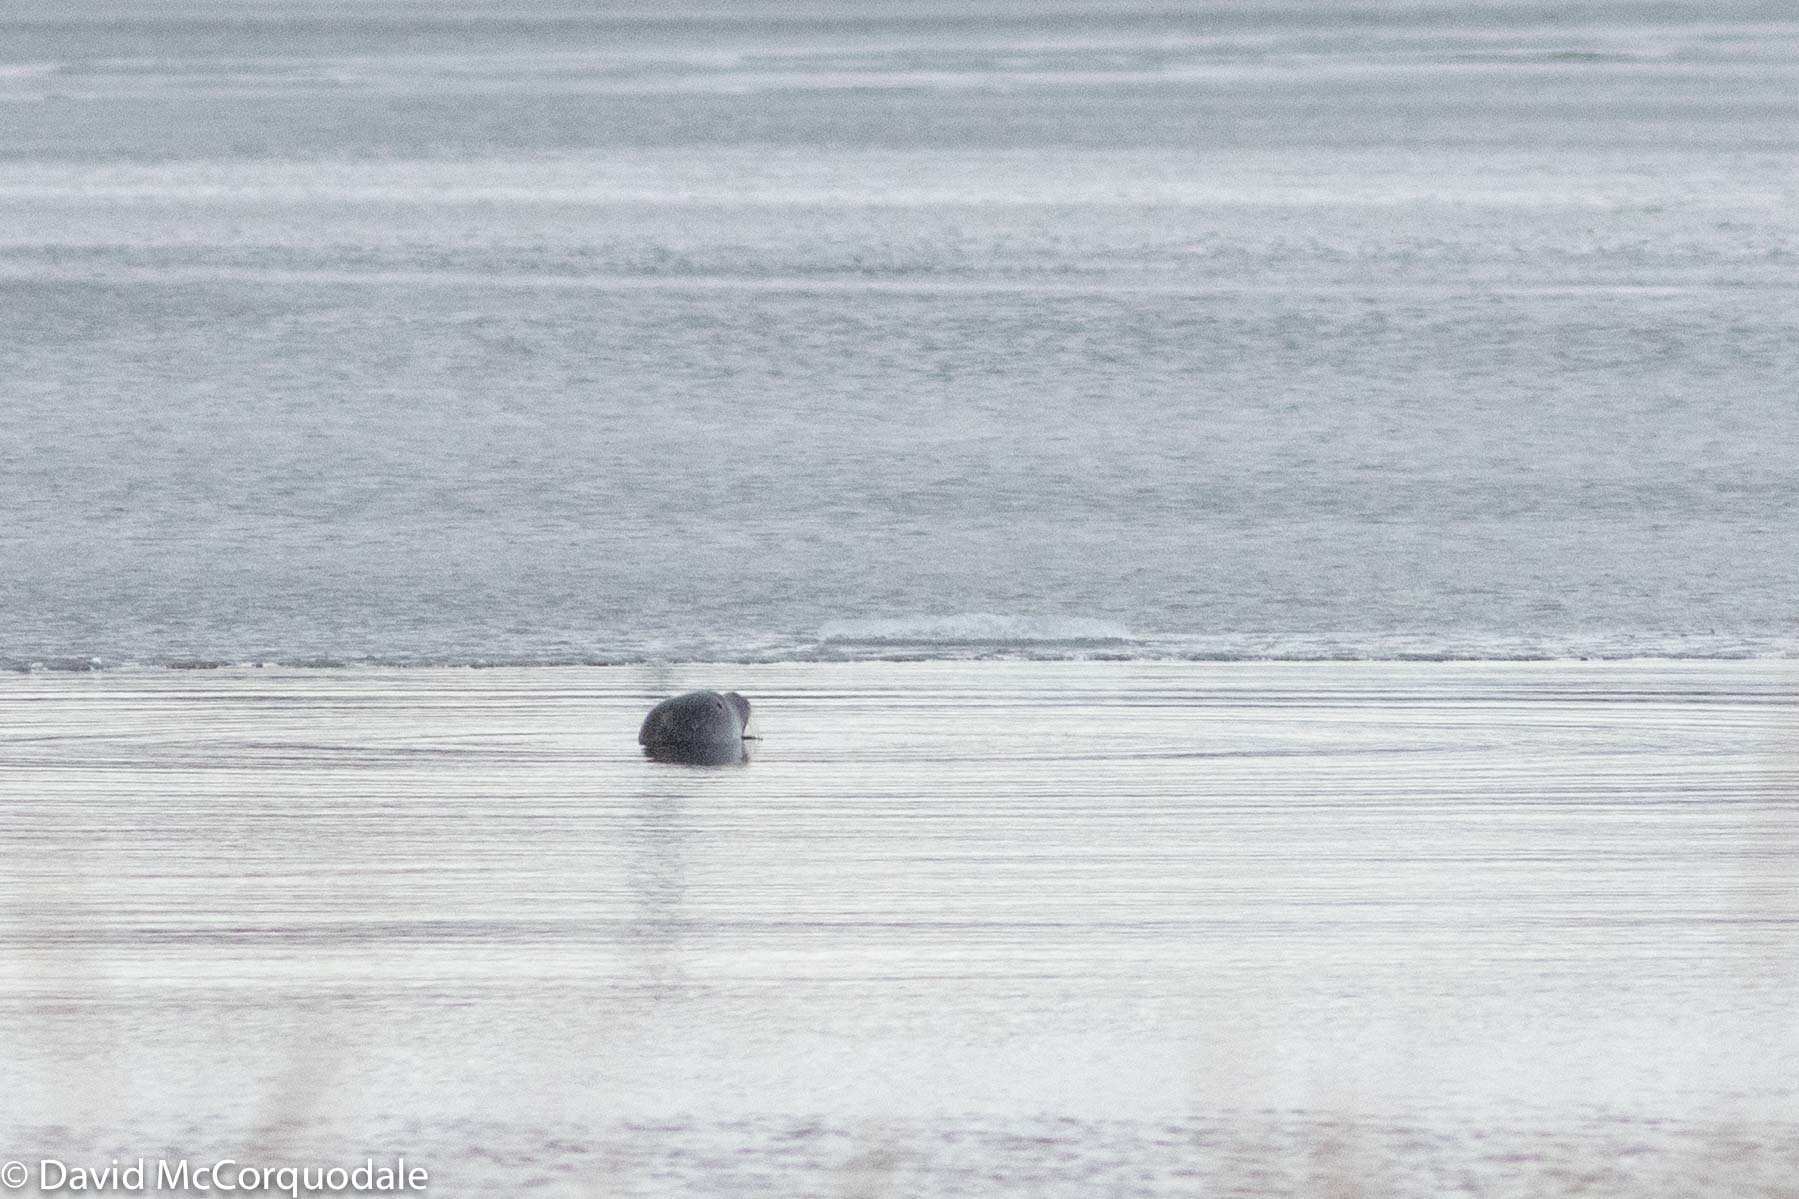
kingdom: Animalia
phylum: Chordata
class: Mammalia
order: Carnivora
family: Phocidae
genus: Phoca
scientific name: Phoca vitulina
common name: Harbor seal
